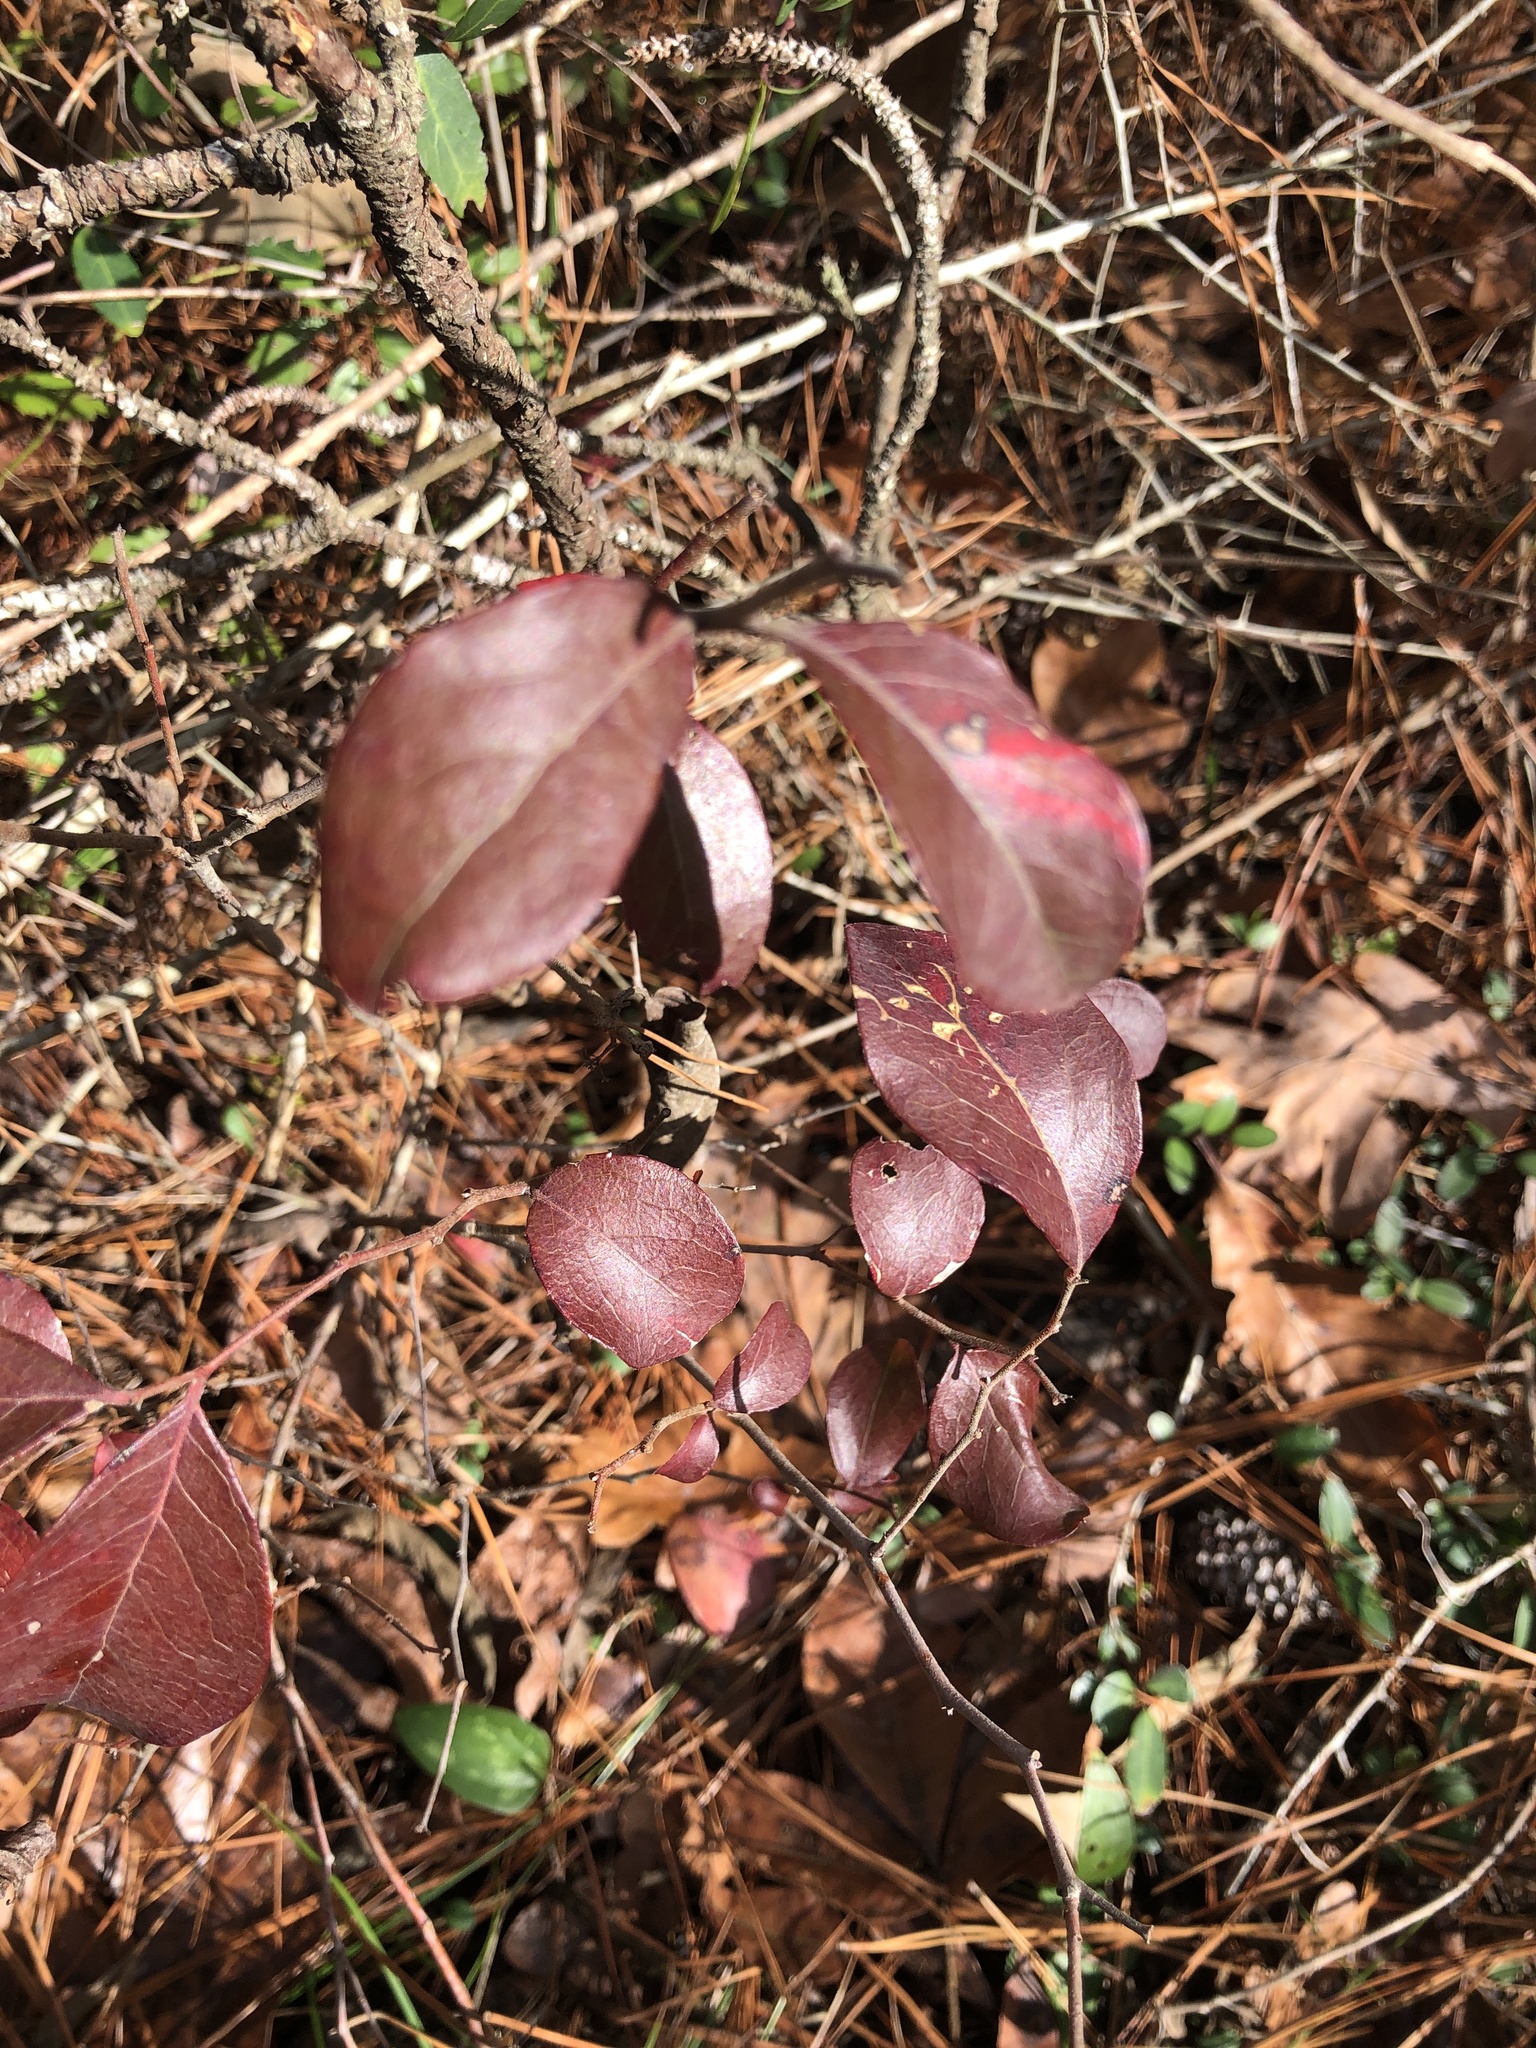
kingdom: Plantae
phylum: Tracheophyta
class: Magnoliopsida
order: Ericales
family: Ericaceae
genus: Vaccinium
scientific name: Vaccinium arboreum
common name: Farkleberry
